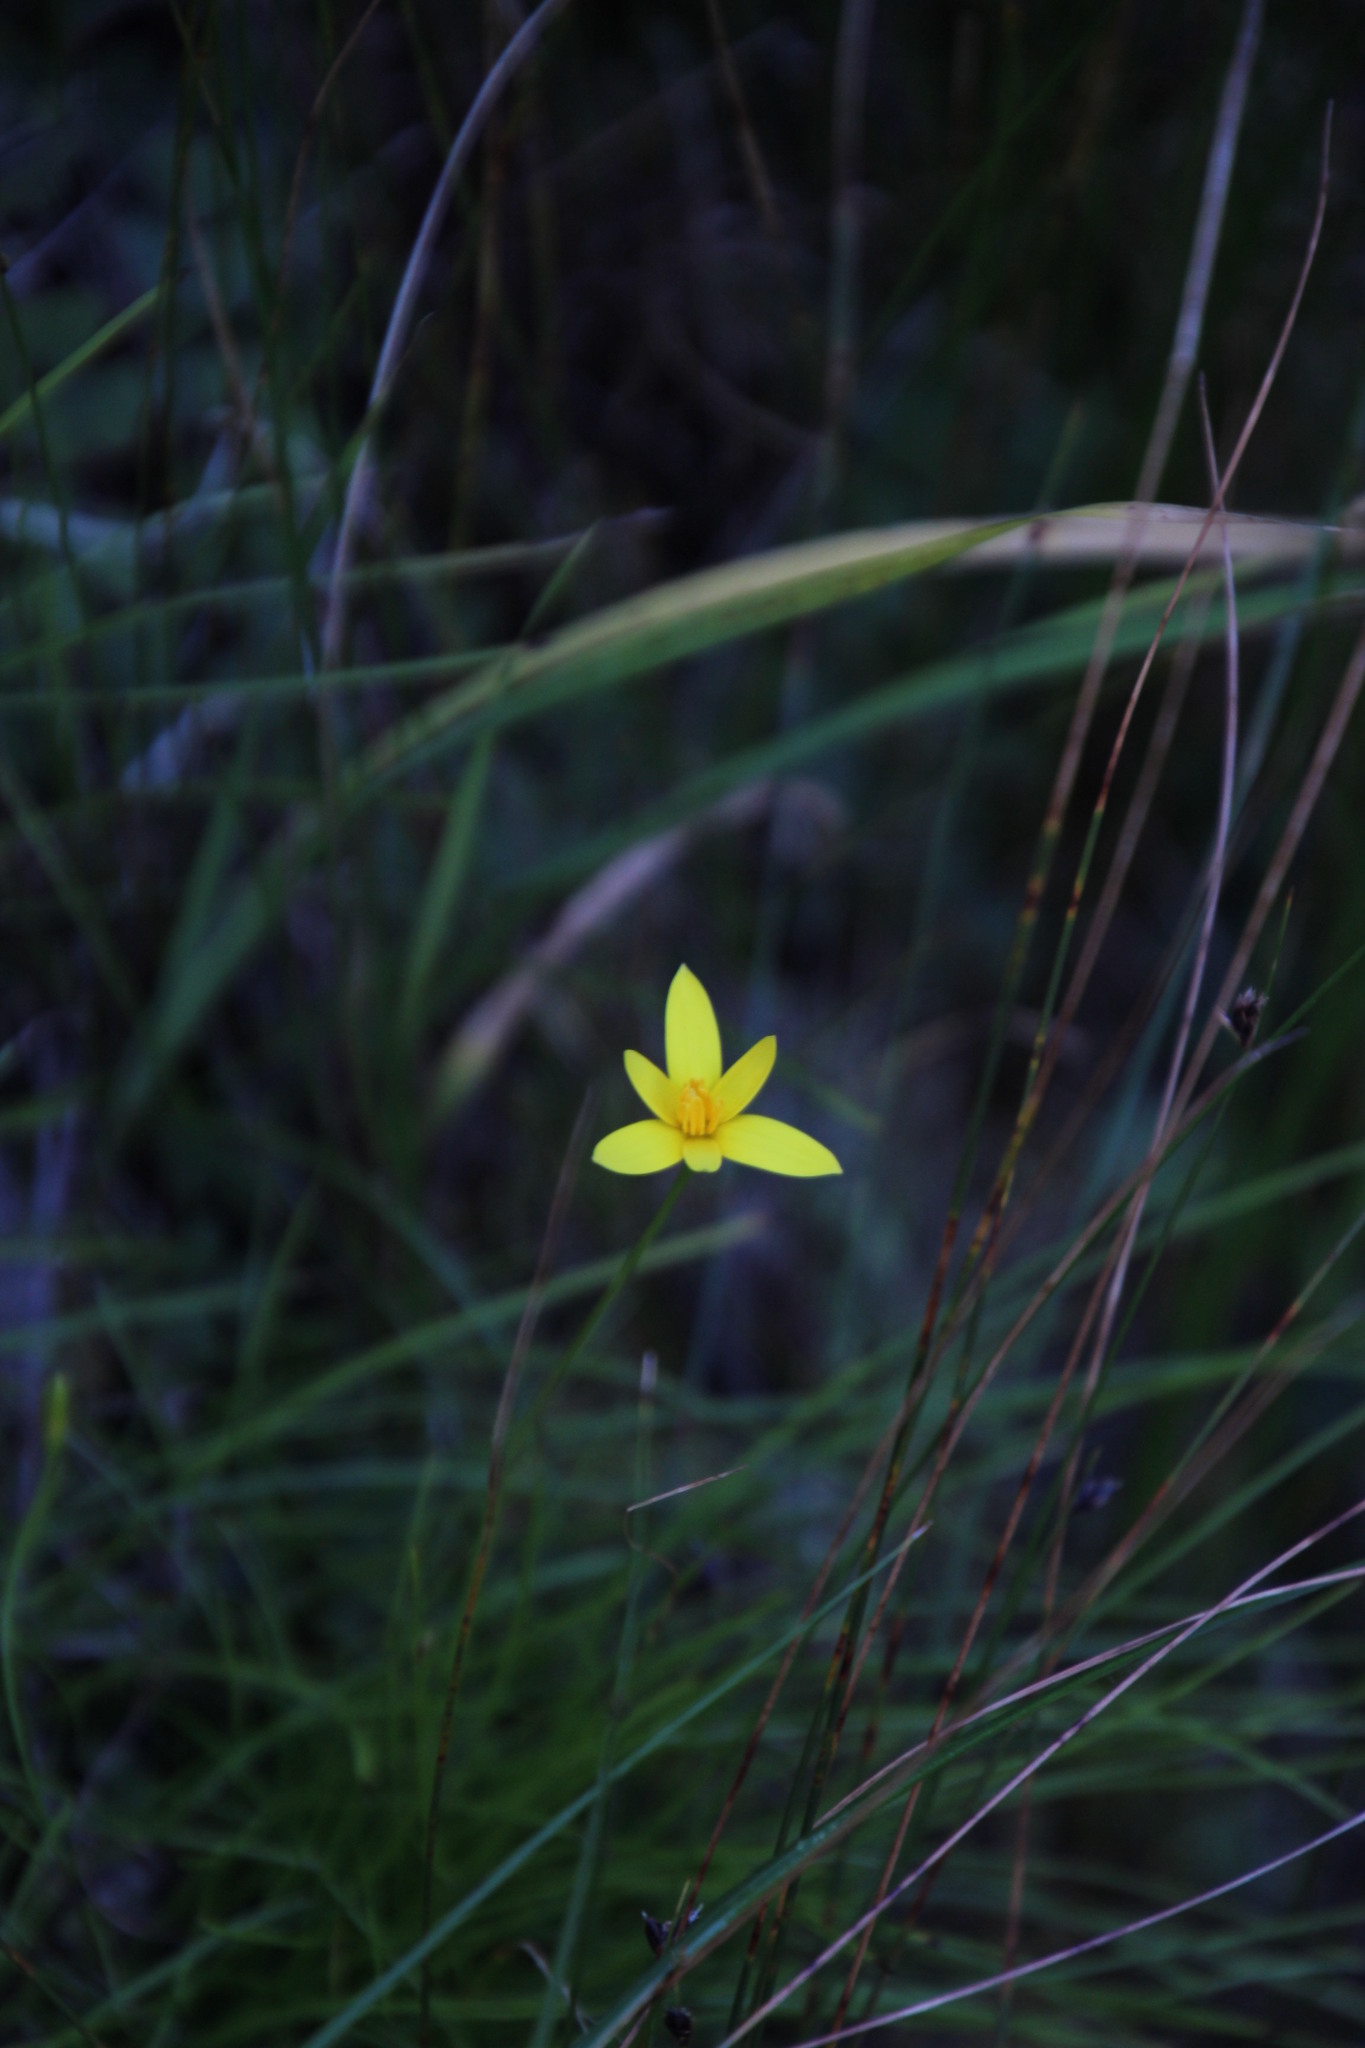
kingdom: Plantae
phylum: Tracheophyta
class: Liliopsida
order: Asparagales
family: Hypoxidaceae
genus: Pauridia
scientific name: Pauridia capensis
